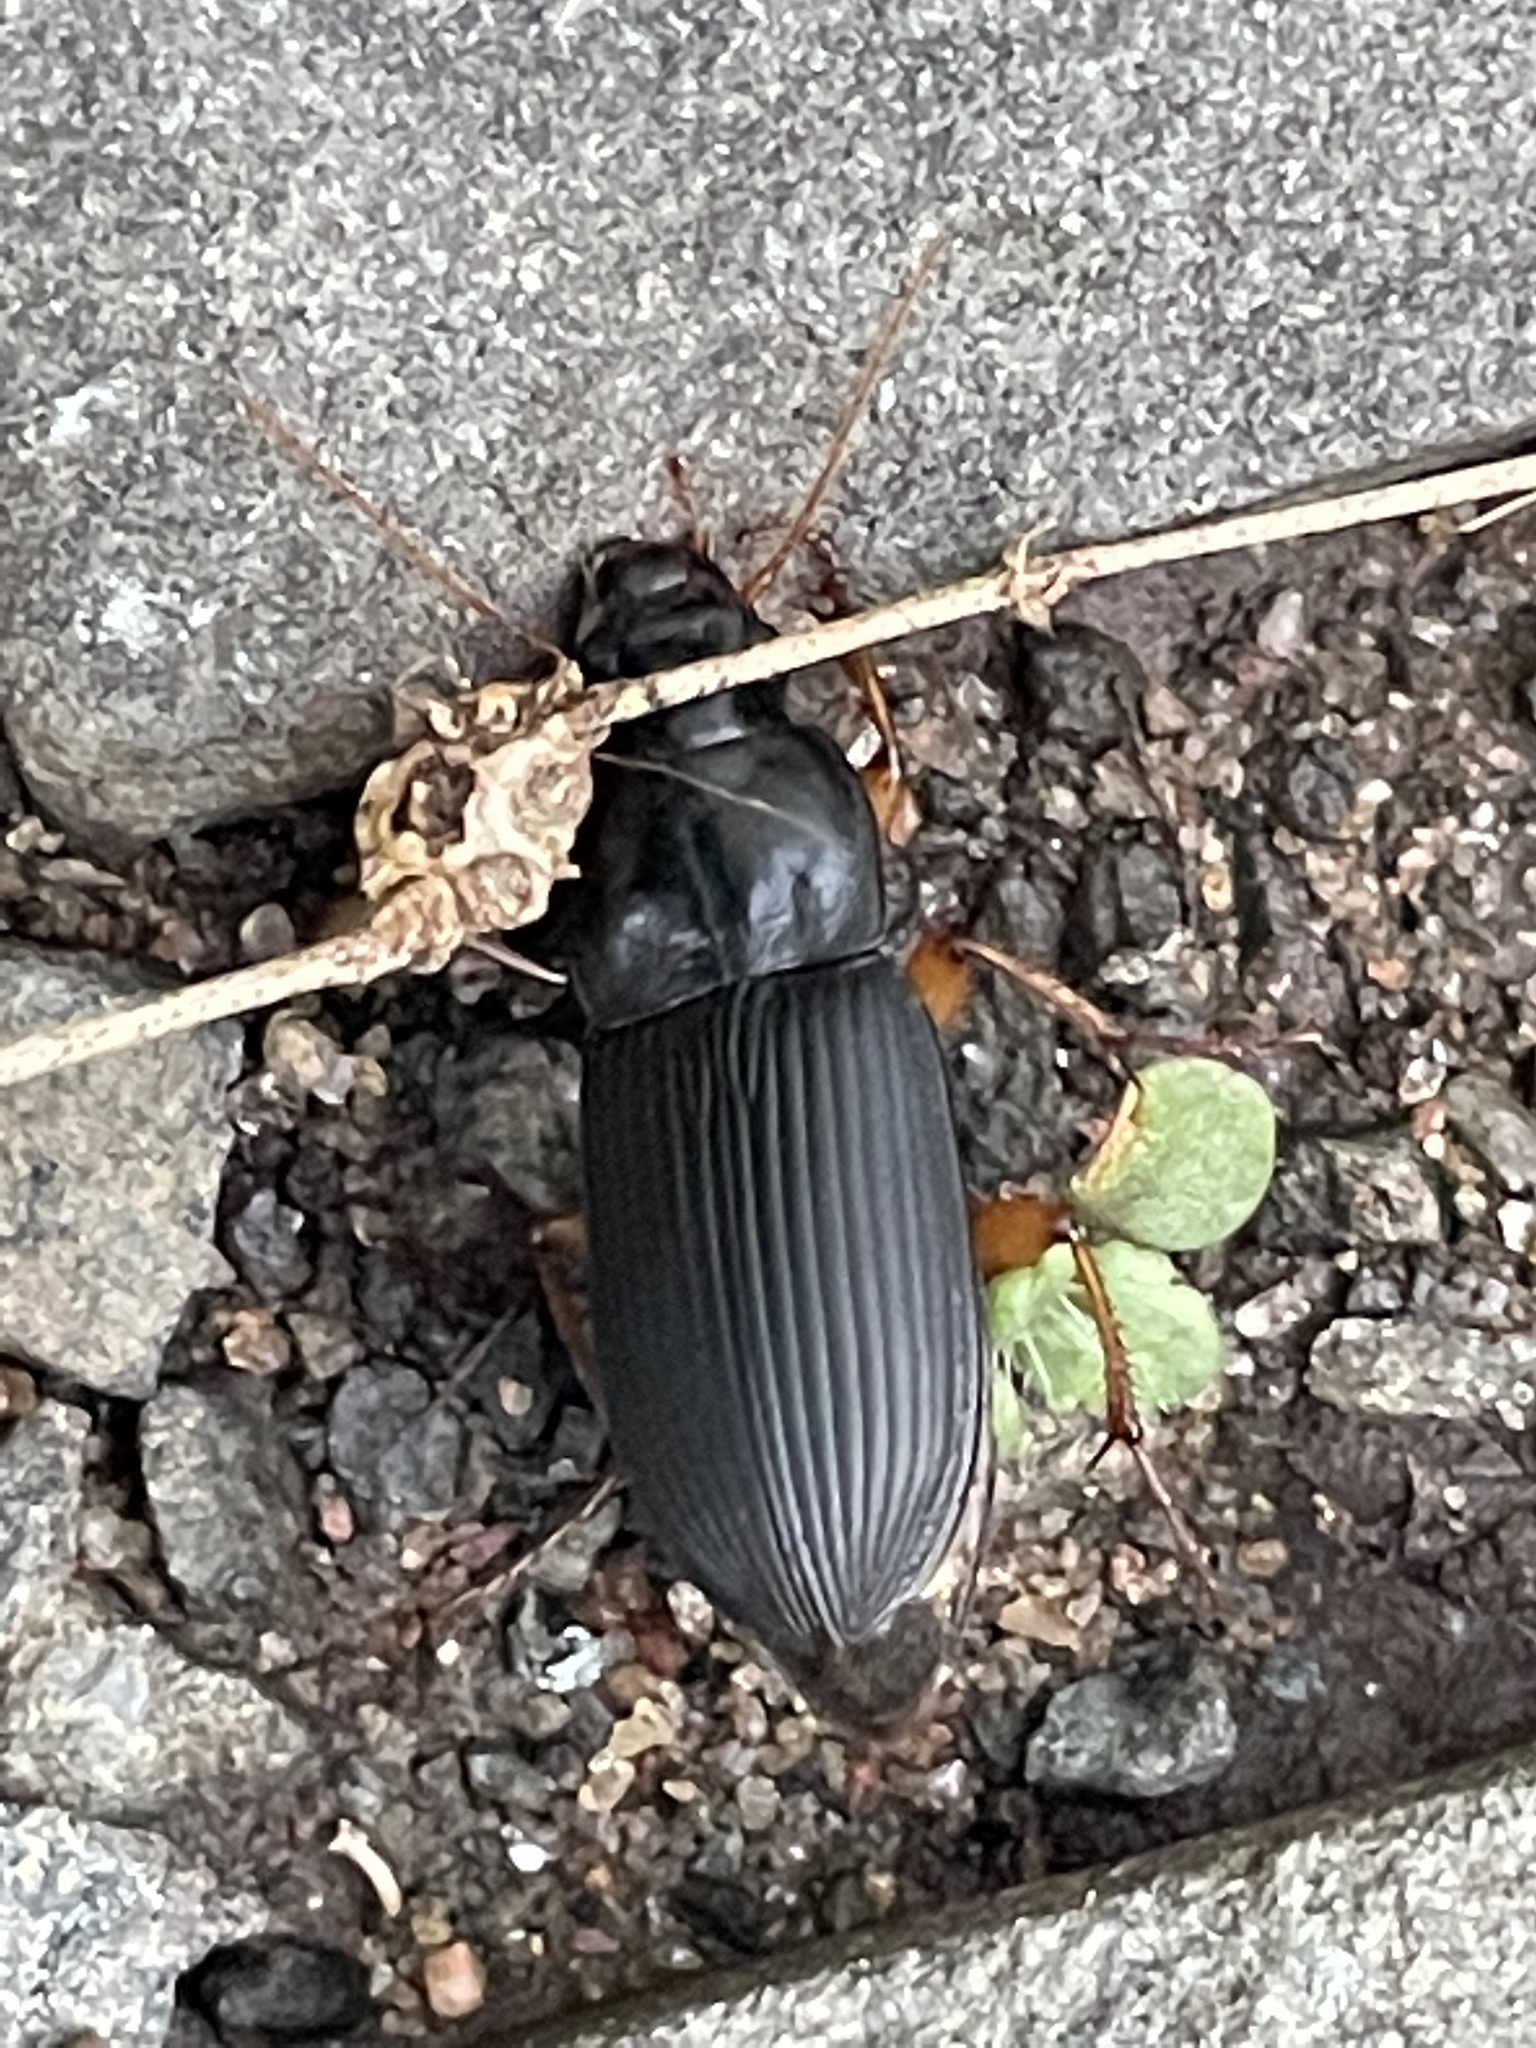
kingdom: Animalia
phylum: Arthropoda
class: Insecta
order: Coleoptera
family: Carabidae
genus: Harpalus
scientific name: Harpalus pensylvanicus
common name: Pennsylvania dingy ground beetle
